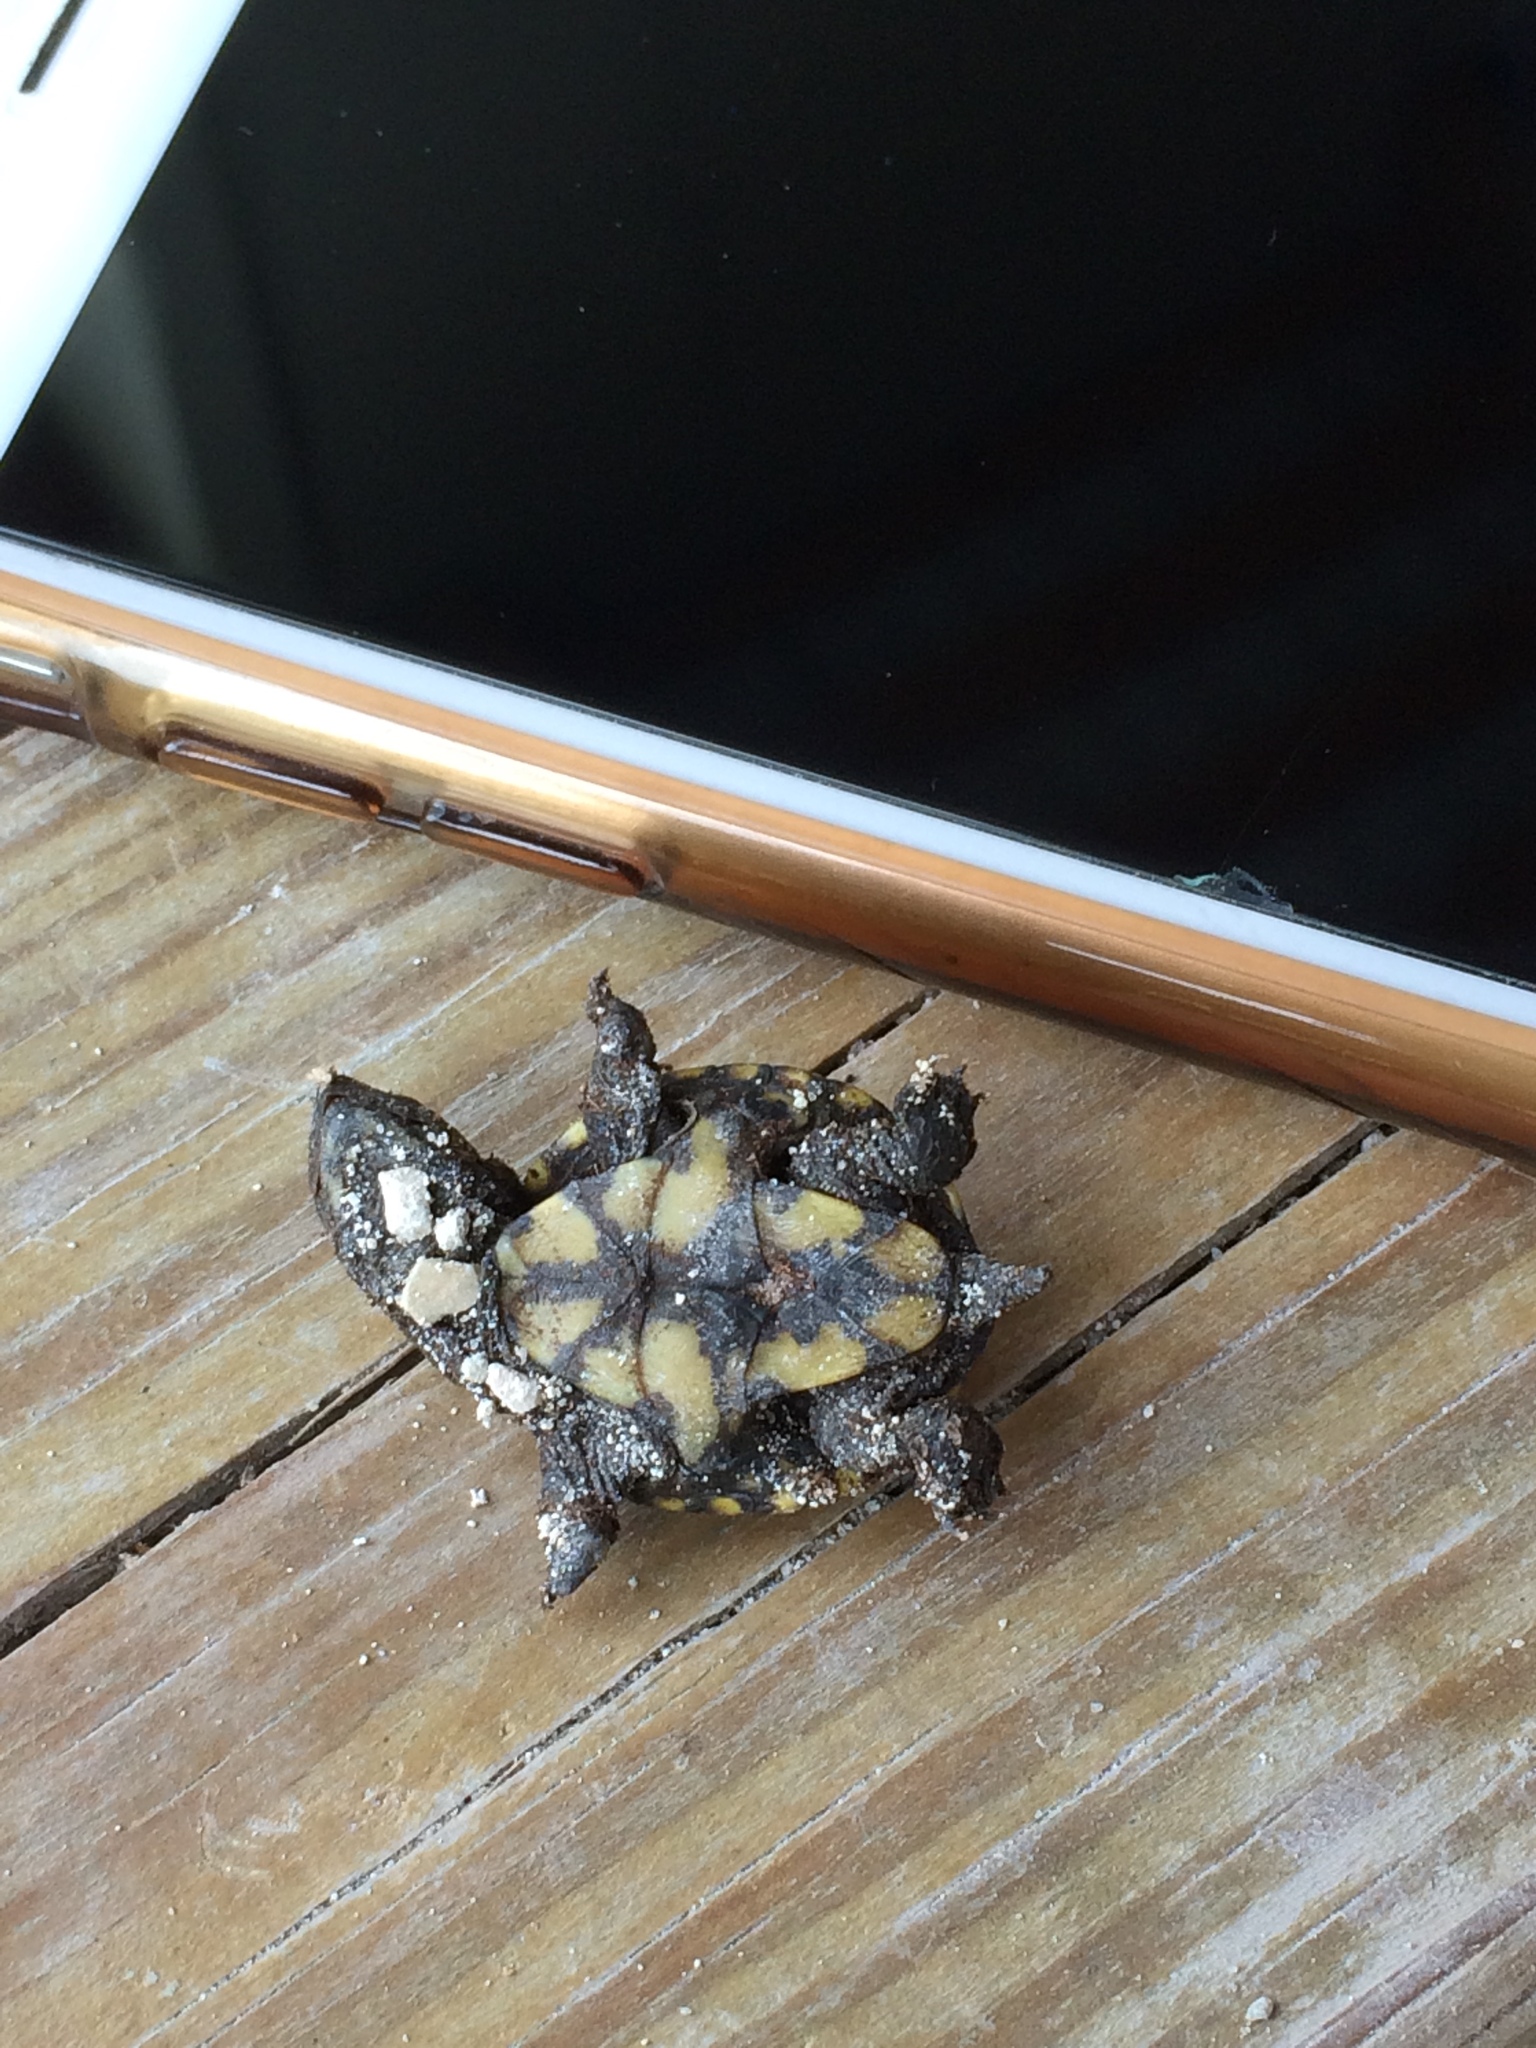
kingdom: Animalia
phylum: Chordata
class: Testudines
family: Kinosternidae
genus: Kinosternon
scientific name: Kinosternon
